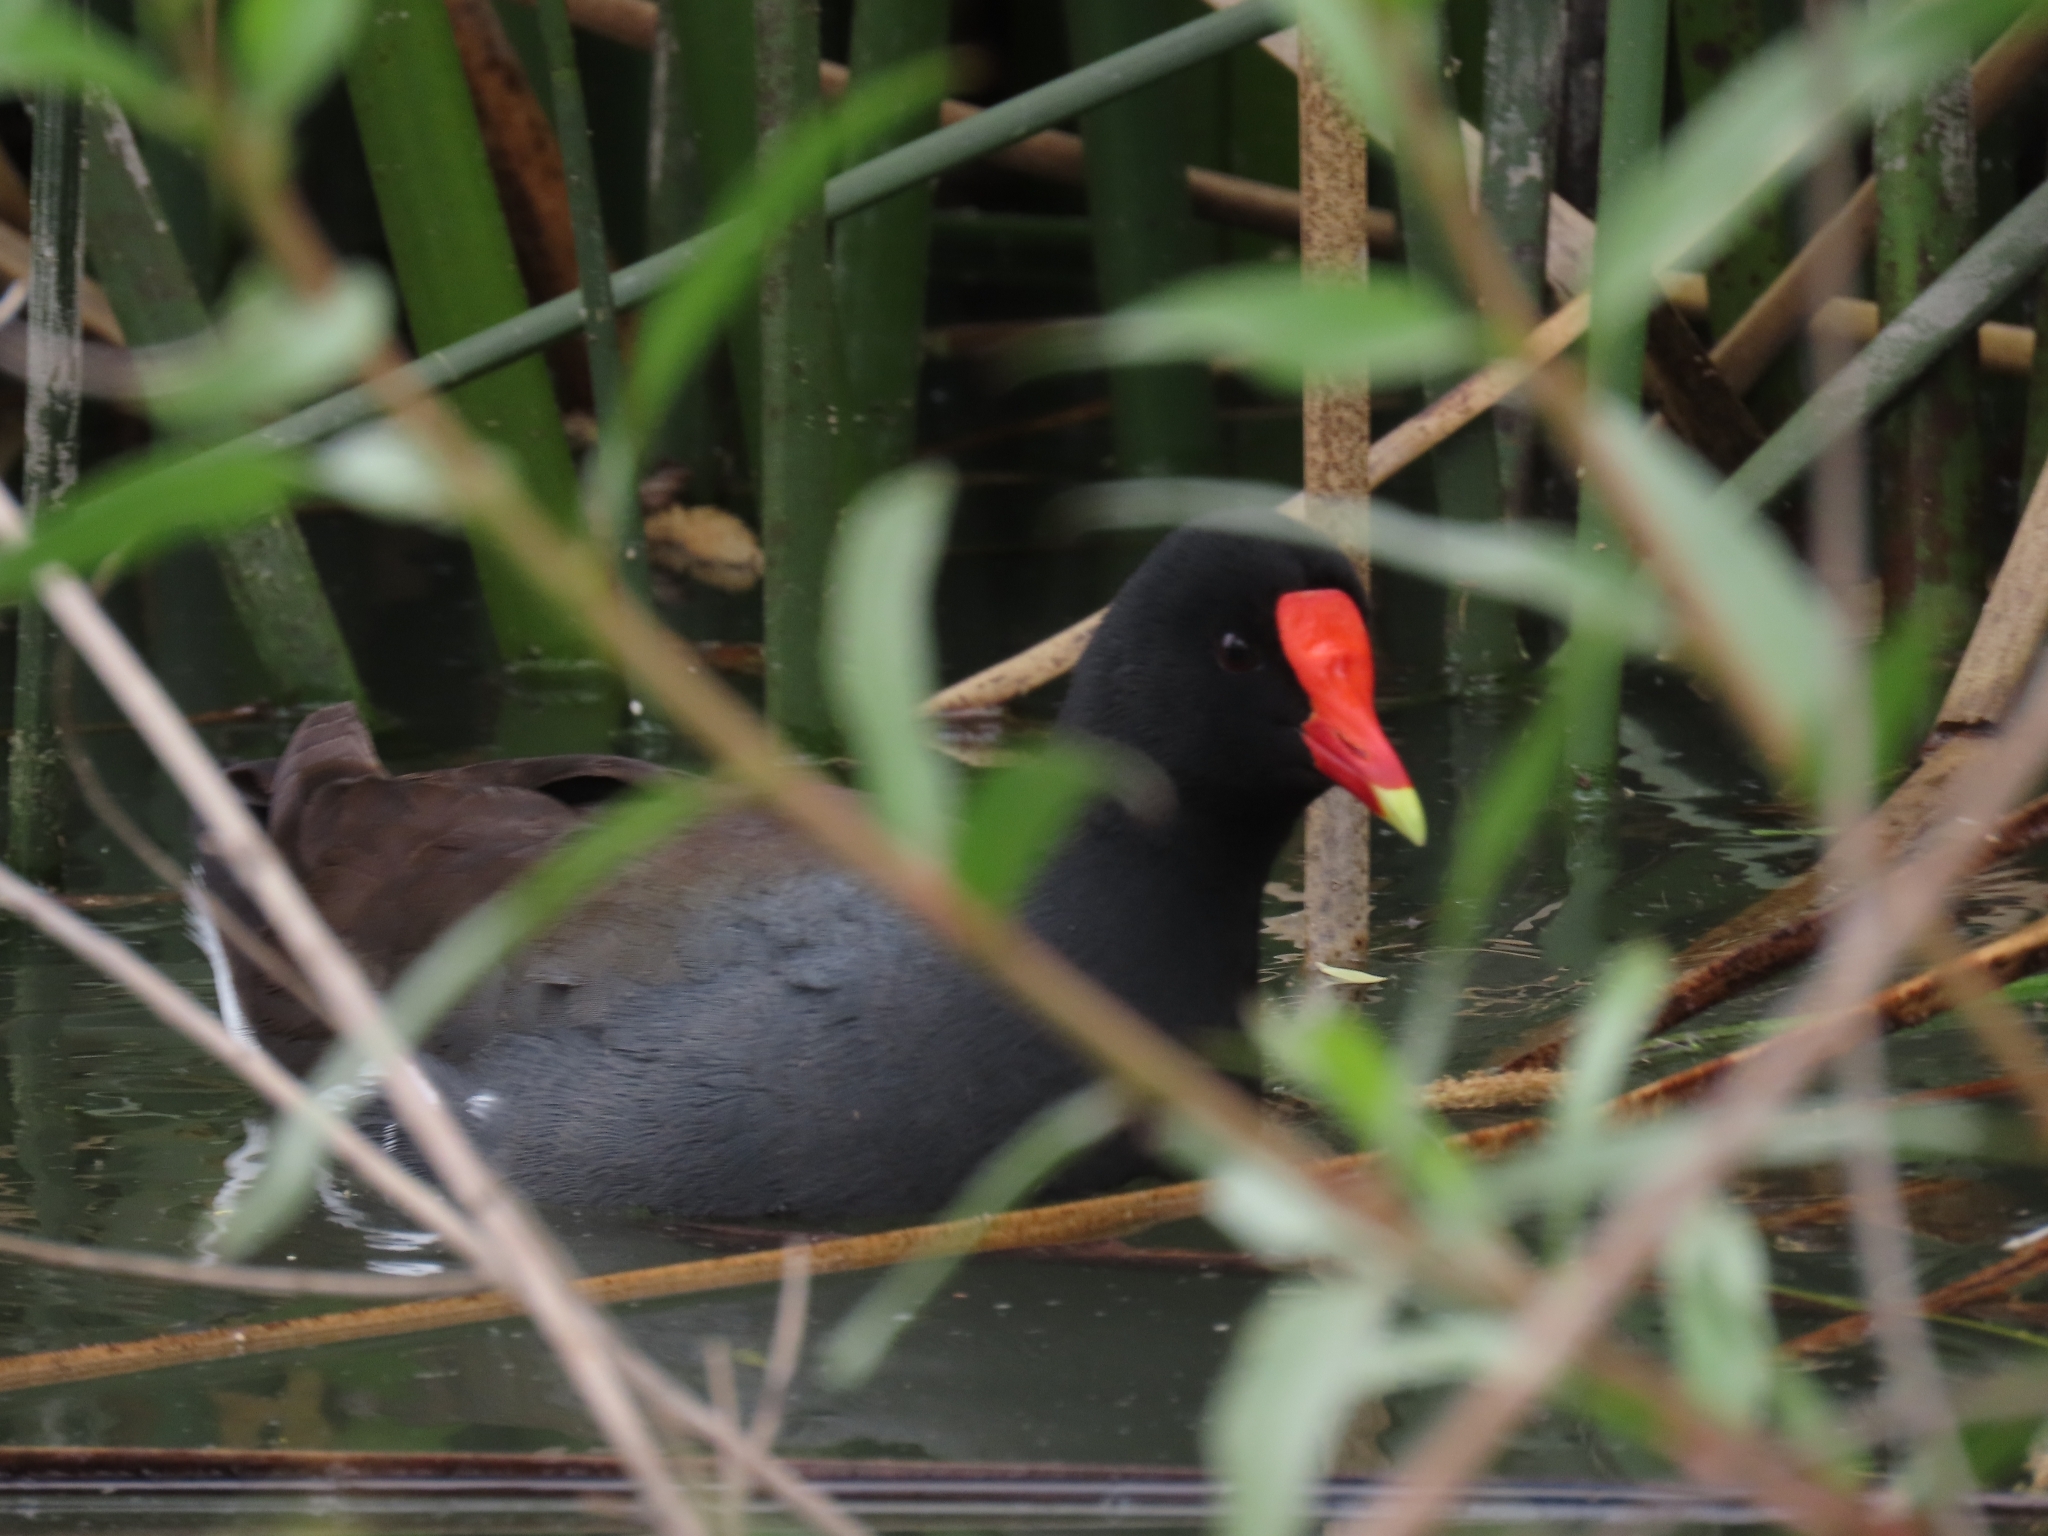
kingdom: Animalia
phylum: Chordata
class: Aves
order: Gruiformes
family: Rallidae
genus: Gallinula
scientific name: Gallinula chloropus
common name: Common moorhen
